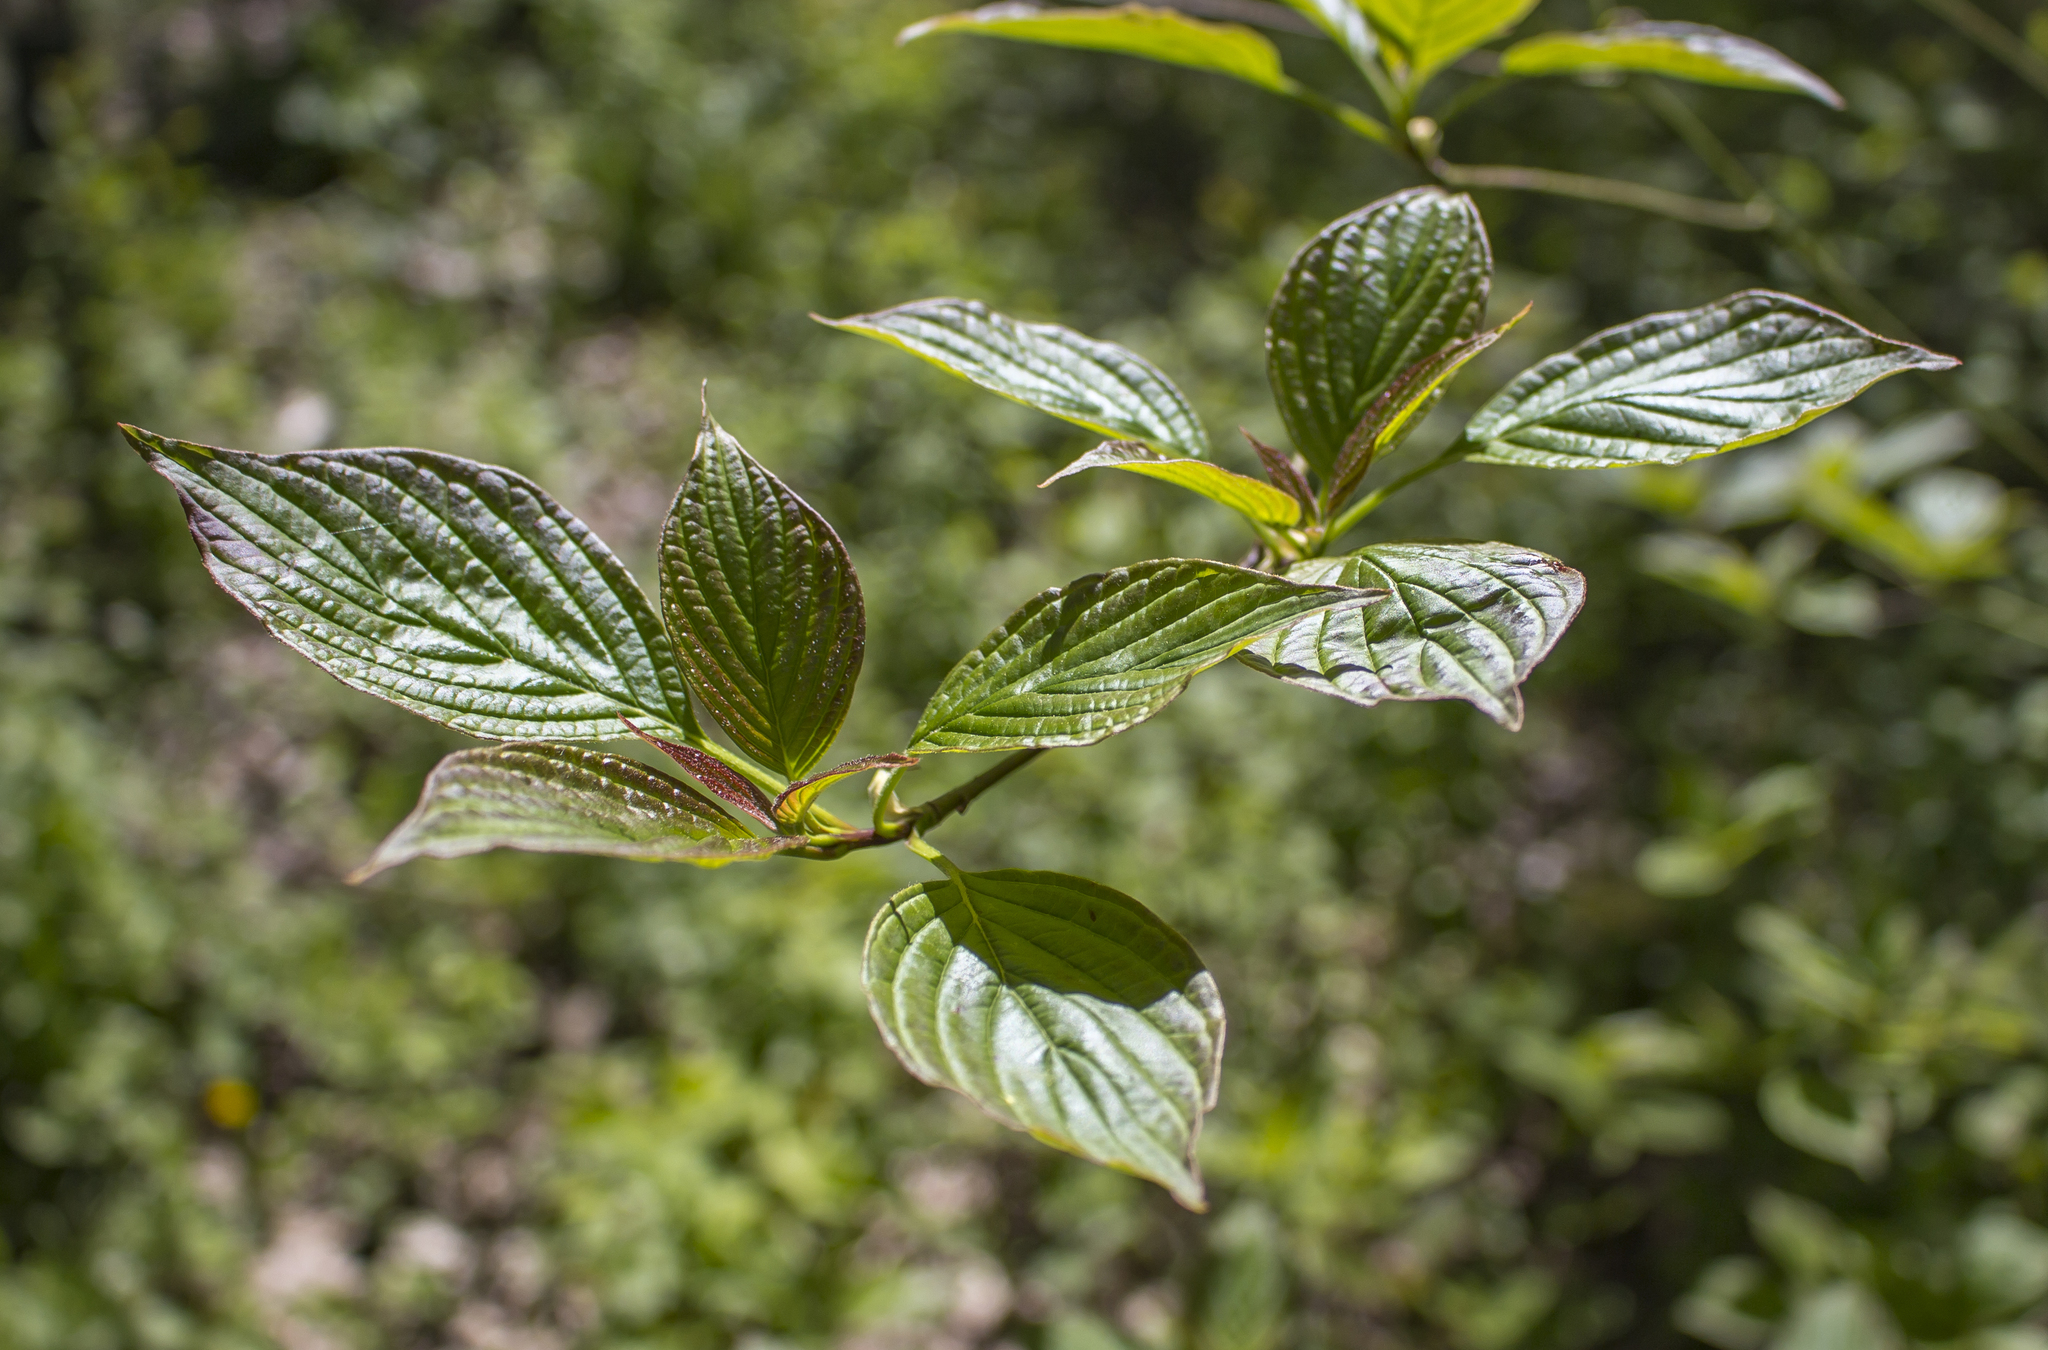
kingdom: Plantae
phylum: Tracheophyta
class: Magnoliopsida
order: Cornales
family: Cornaceae
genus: Cornus
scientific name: Cornus alternifolia
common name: Pagoda dogwood
